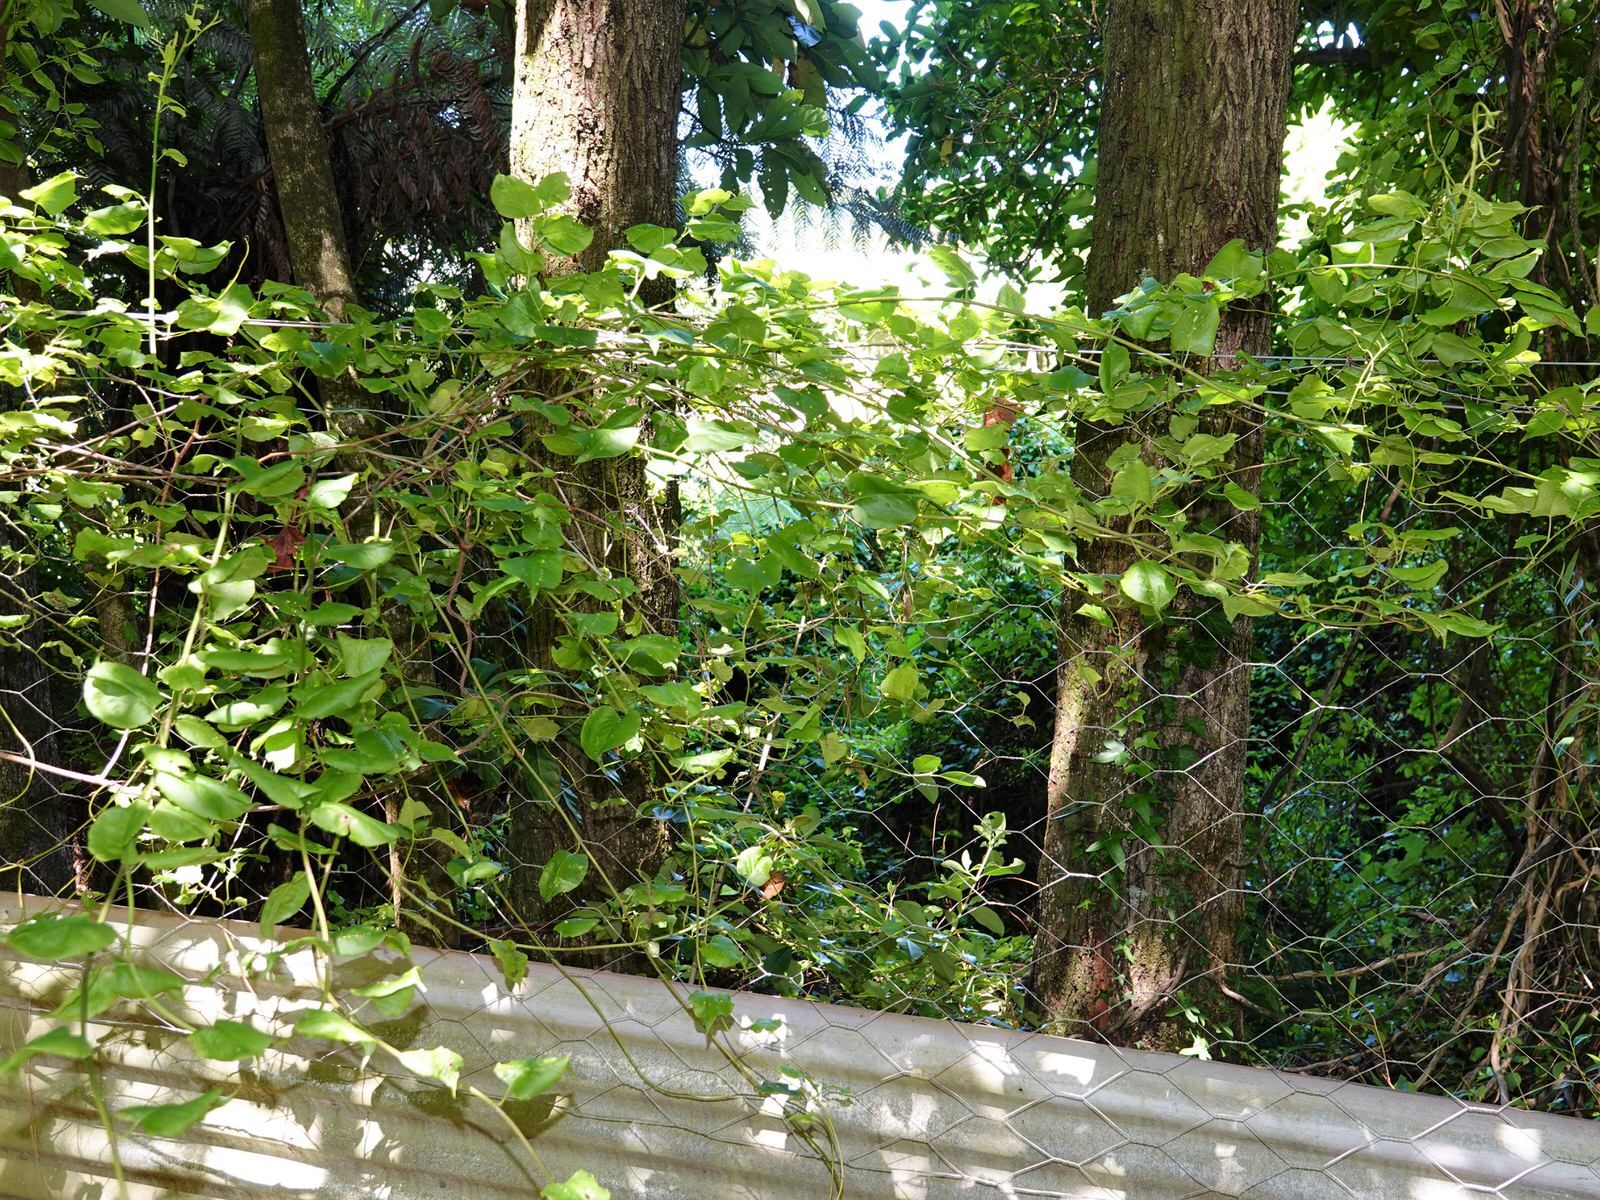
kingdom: Plantae
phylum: Tracheophyta
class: Magnoliopsida
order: Caryophyllales
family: Polygonaceae
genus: Muehlenbeckia
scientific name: Muehlenbeckia australis
